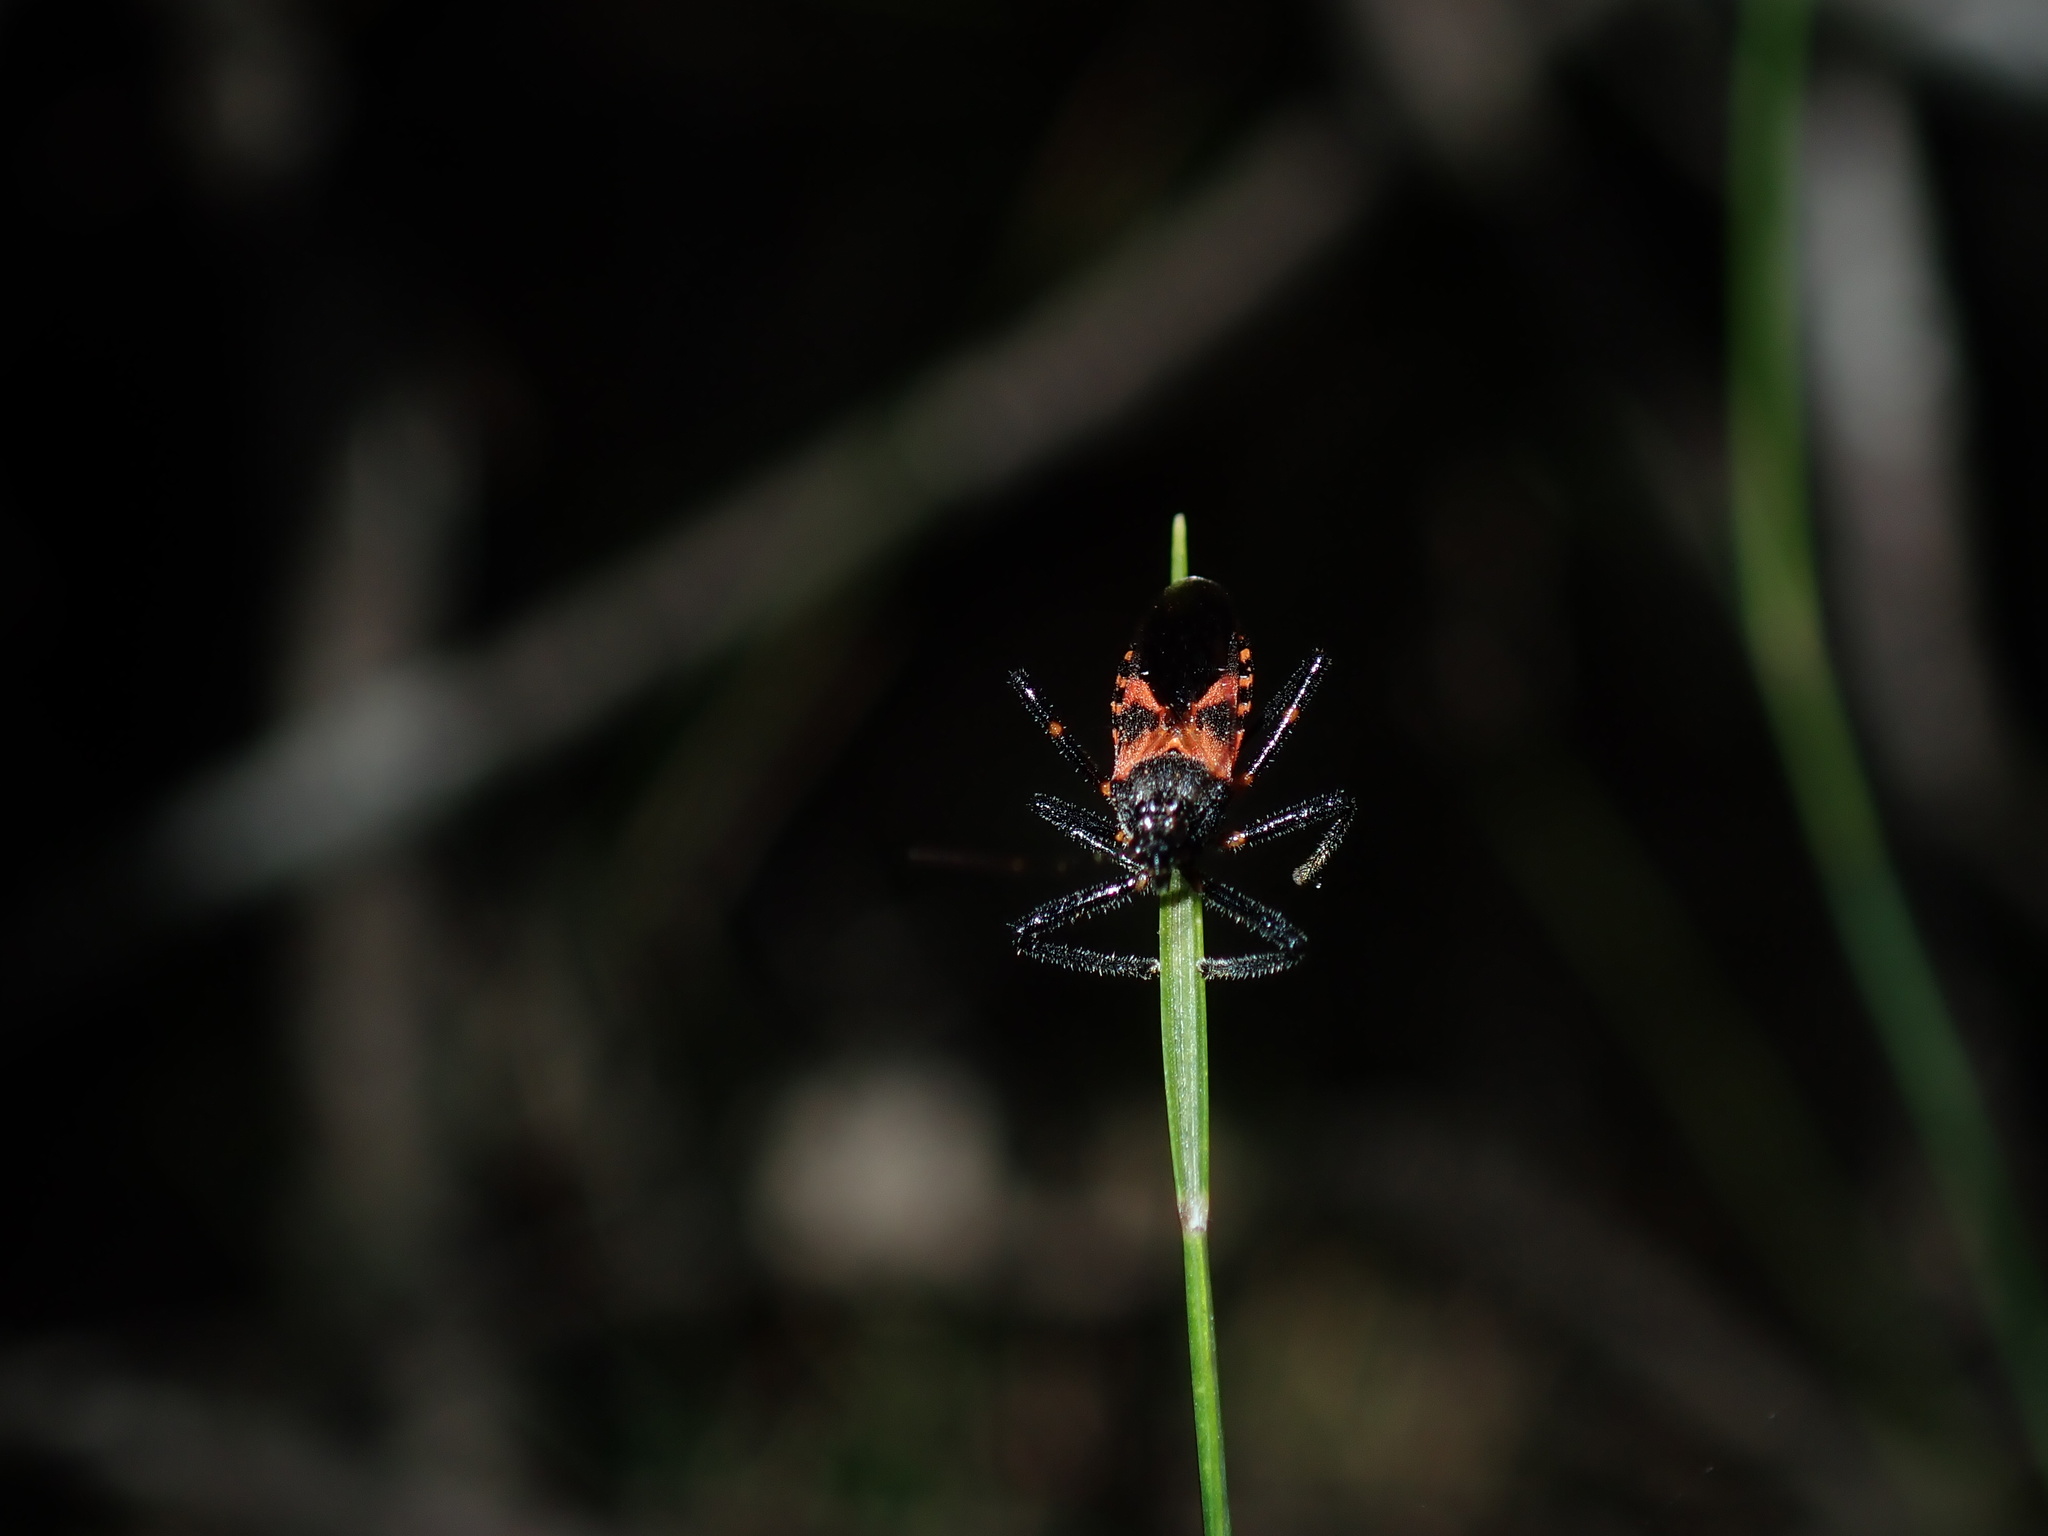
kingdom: Animalia
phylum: Arthropoda
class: Insecta
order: Hemiptera
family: Reduviidae
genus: Catasphactes
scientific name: Catasphactes coprias
